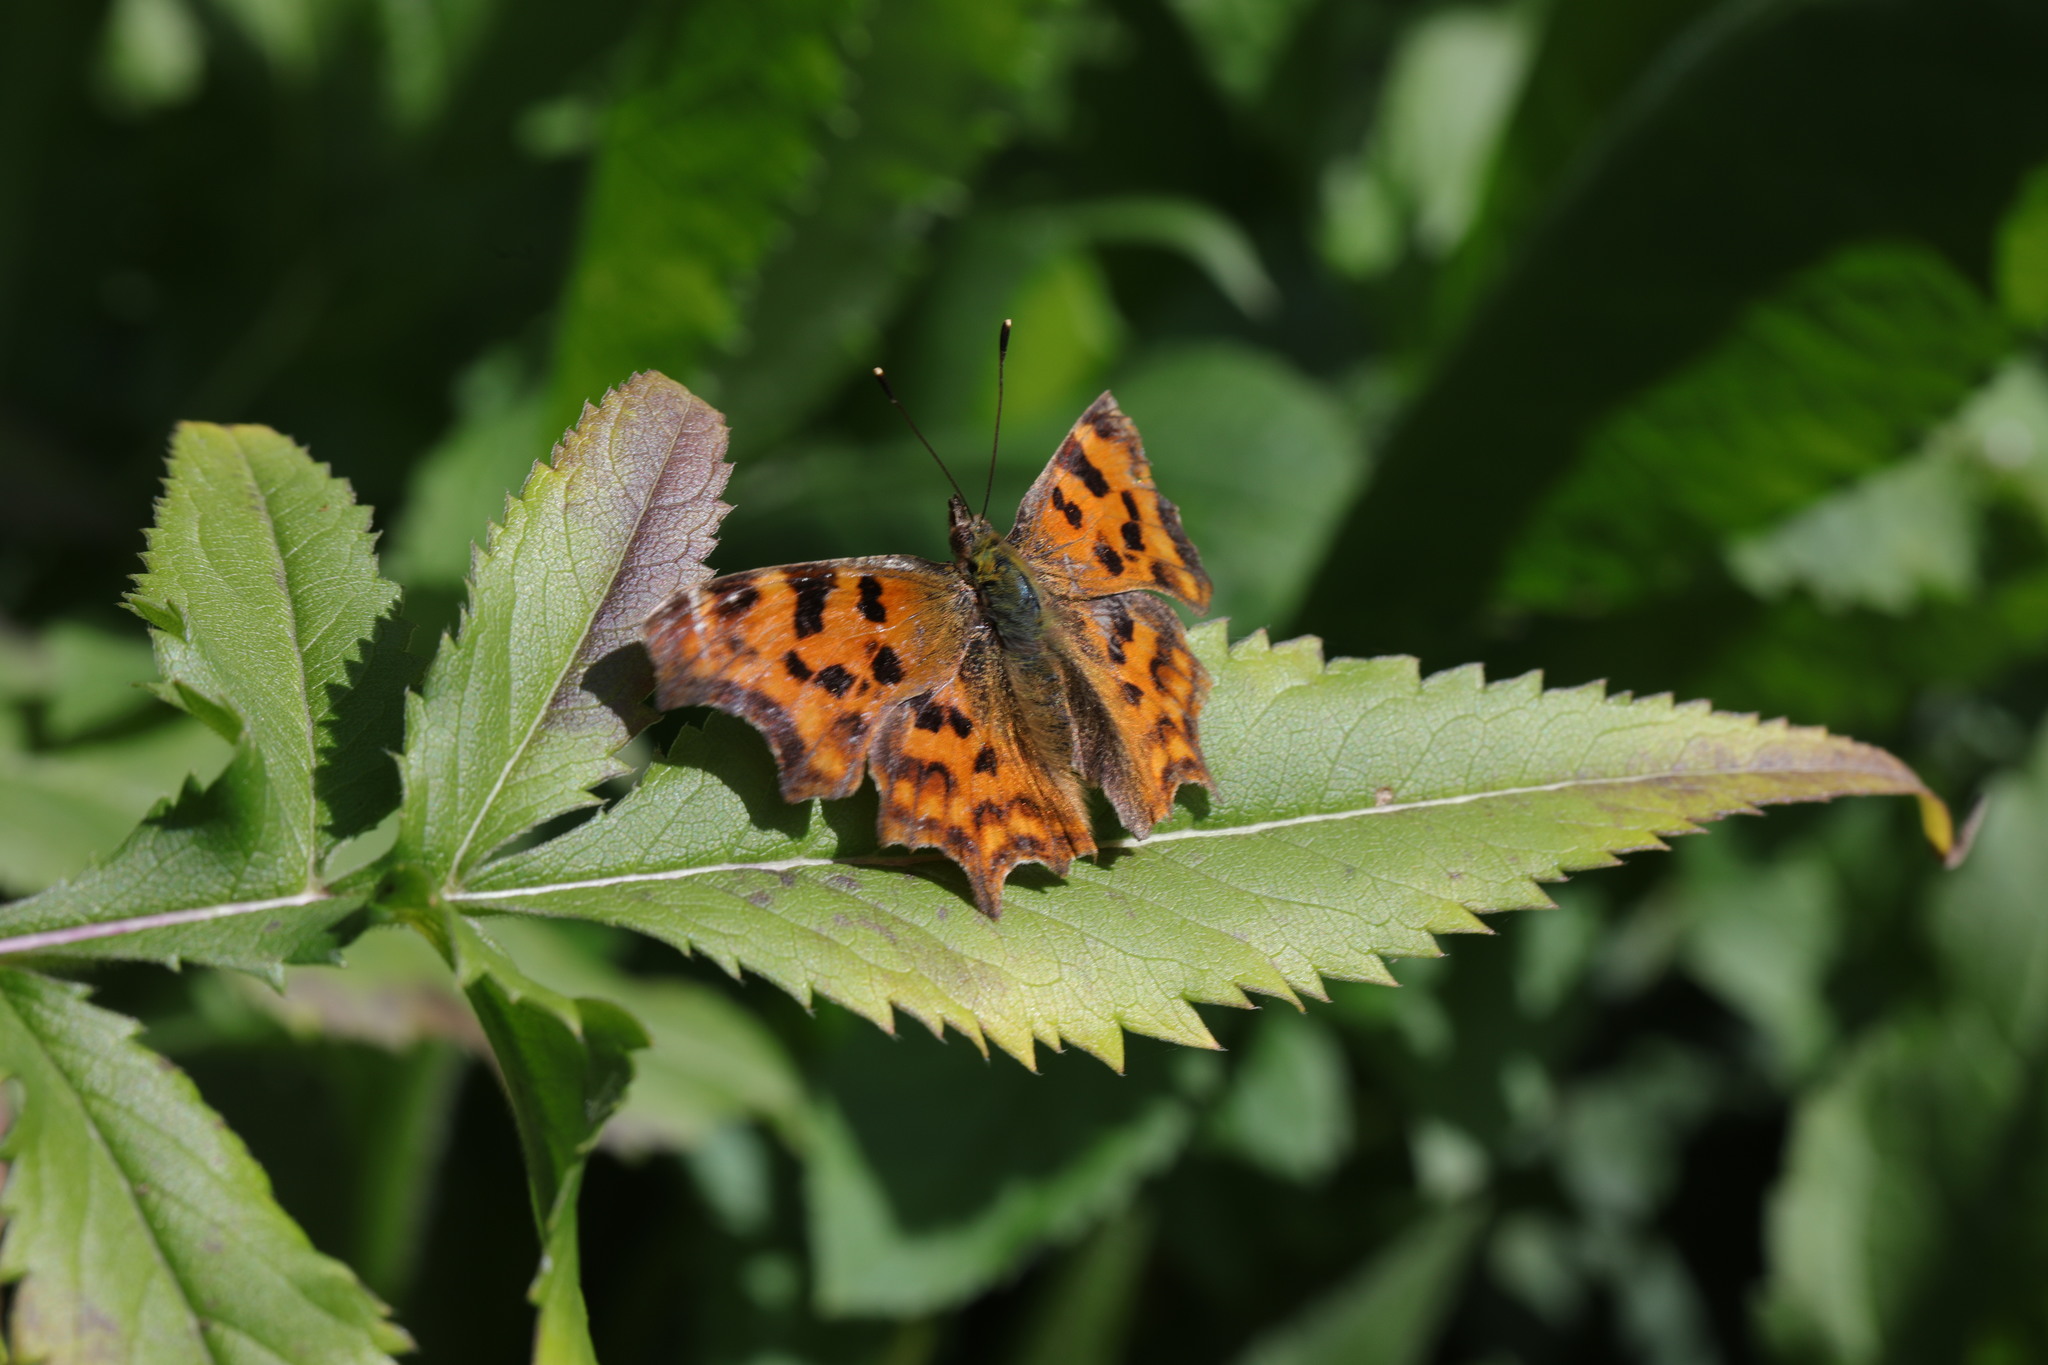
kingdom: Animalia
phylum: Arthropoda
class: Insecta
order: Lepidoptera
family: Nymphalidae
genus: Polygonia
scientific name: Polygonia c-album
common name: Comma
